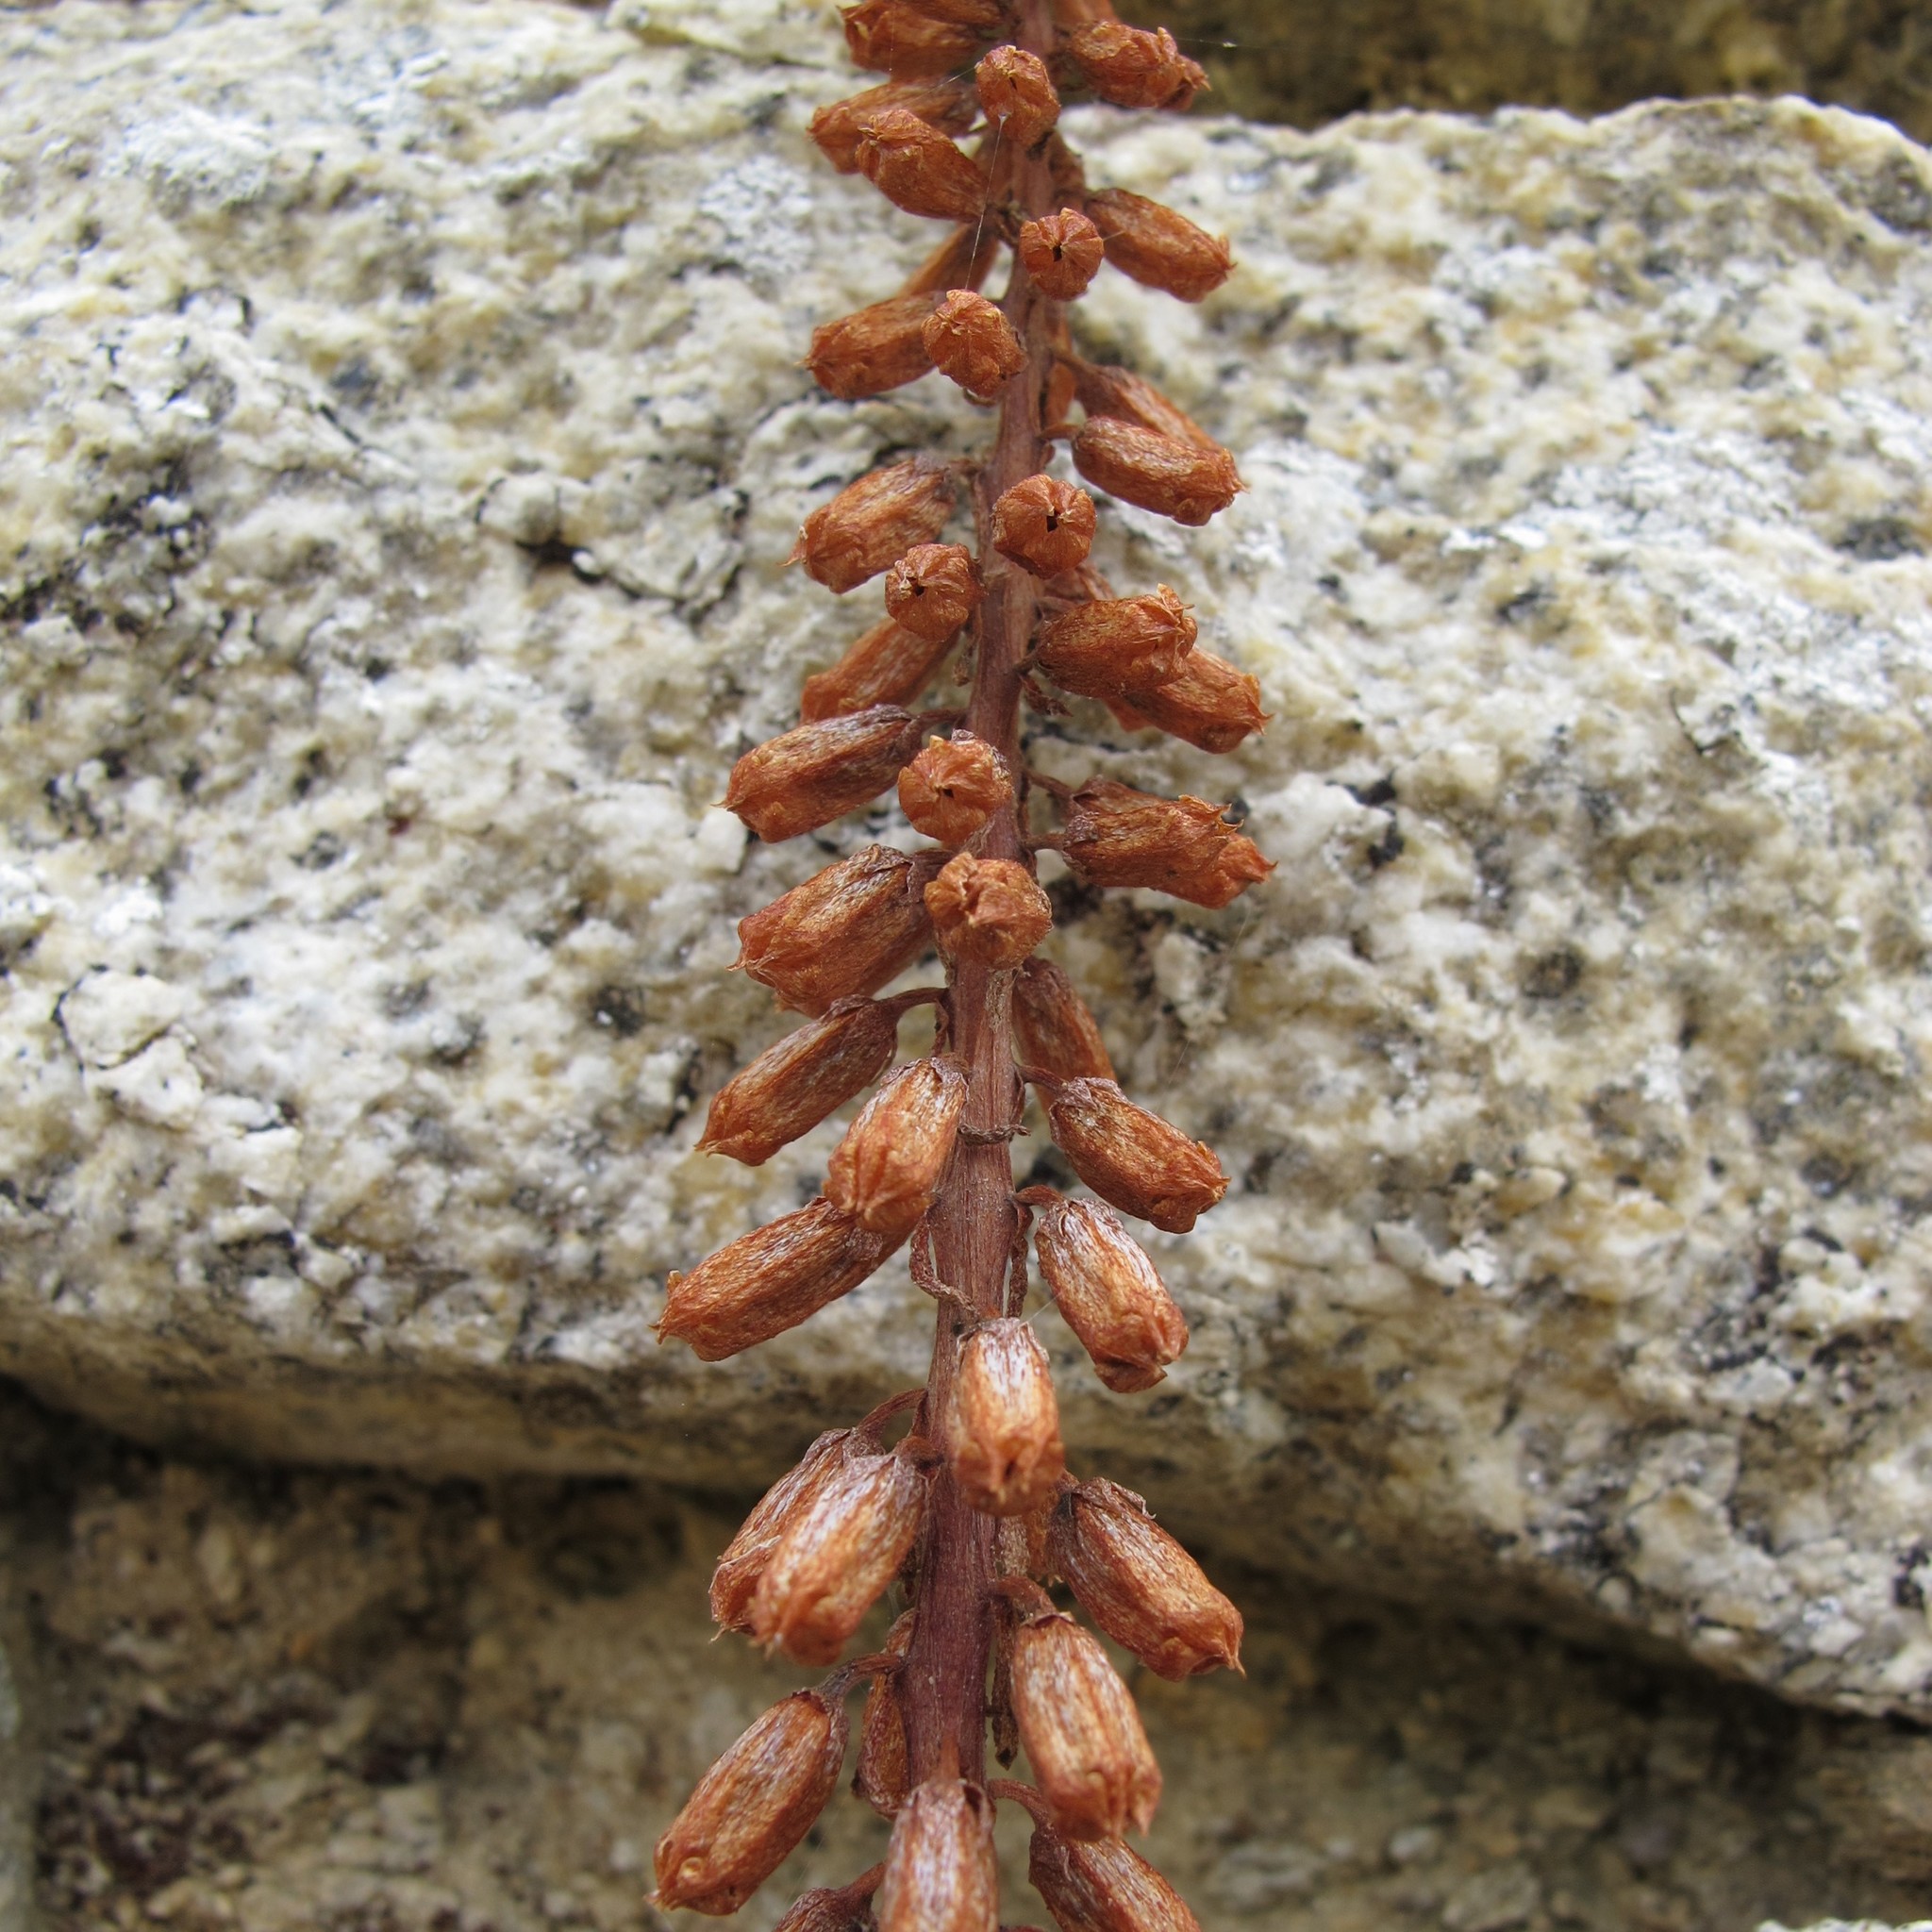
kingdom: Plantae
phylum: Tracheophyta
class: Magnoliopsida
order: Saxifragales
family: Crassulaceae
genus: Umbilicus
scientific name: Umbilicus rupestris
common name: Navelwort
